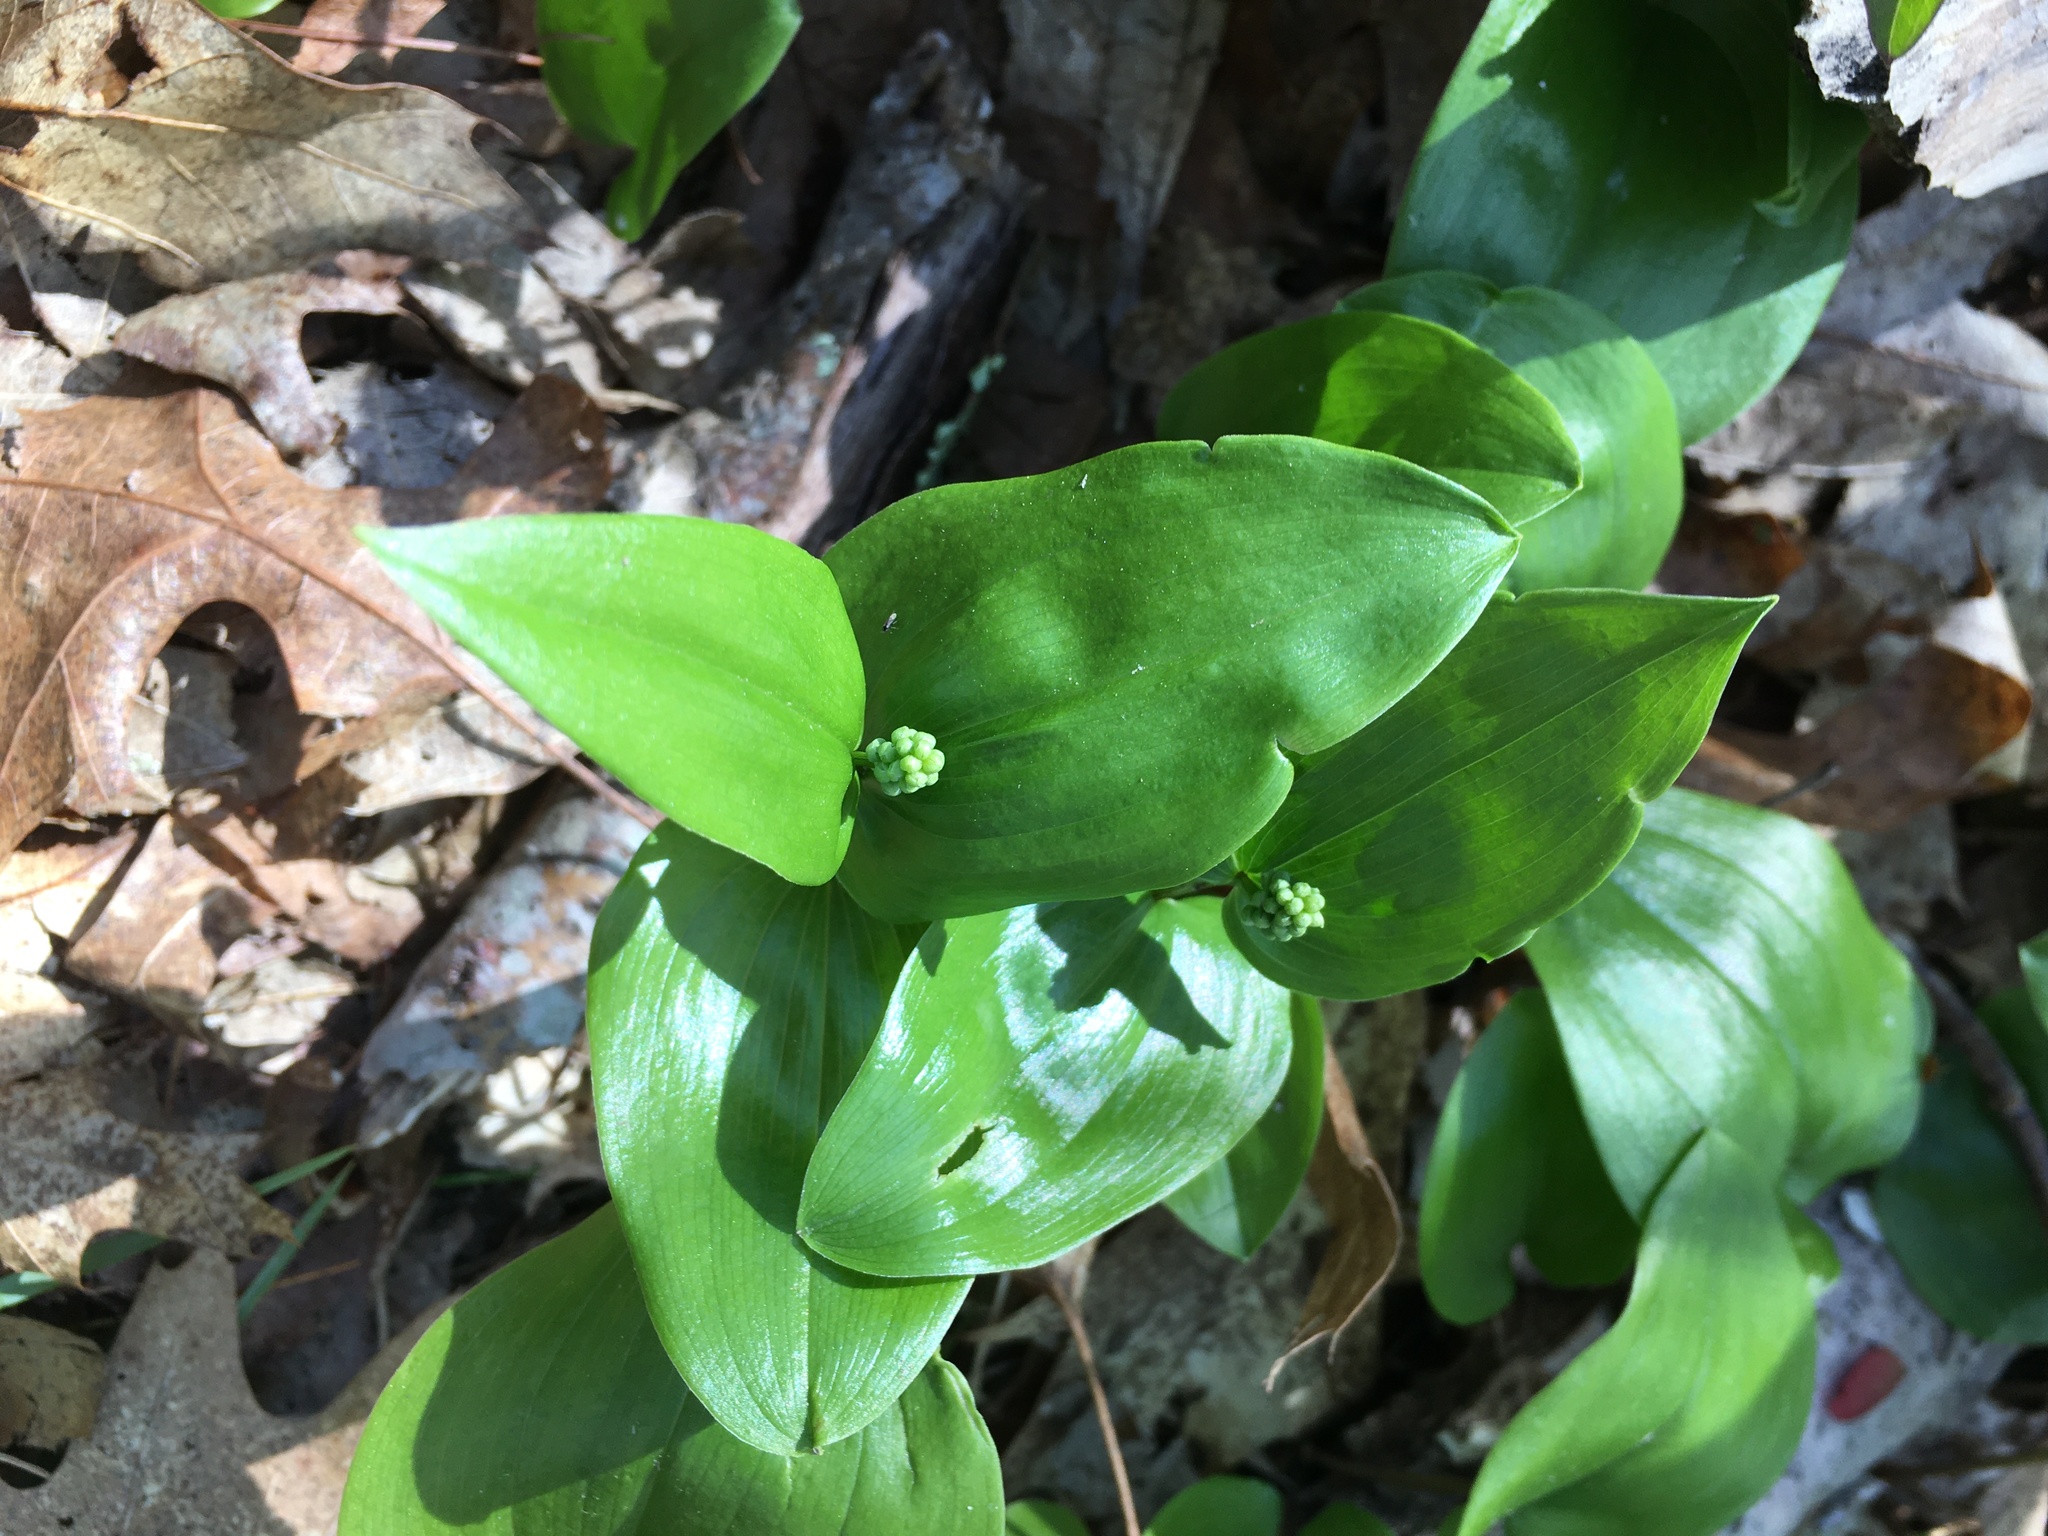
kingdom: Plantae
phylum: Tracheophyta
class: Liliopsida
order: Asparagales
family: Asparagaceae
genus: Maianthemum
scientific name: Maianthemum canadense
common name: False lily-of-the-valley
